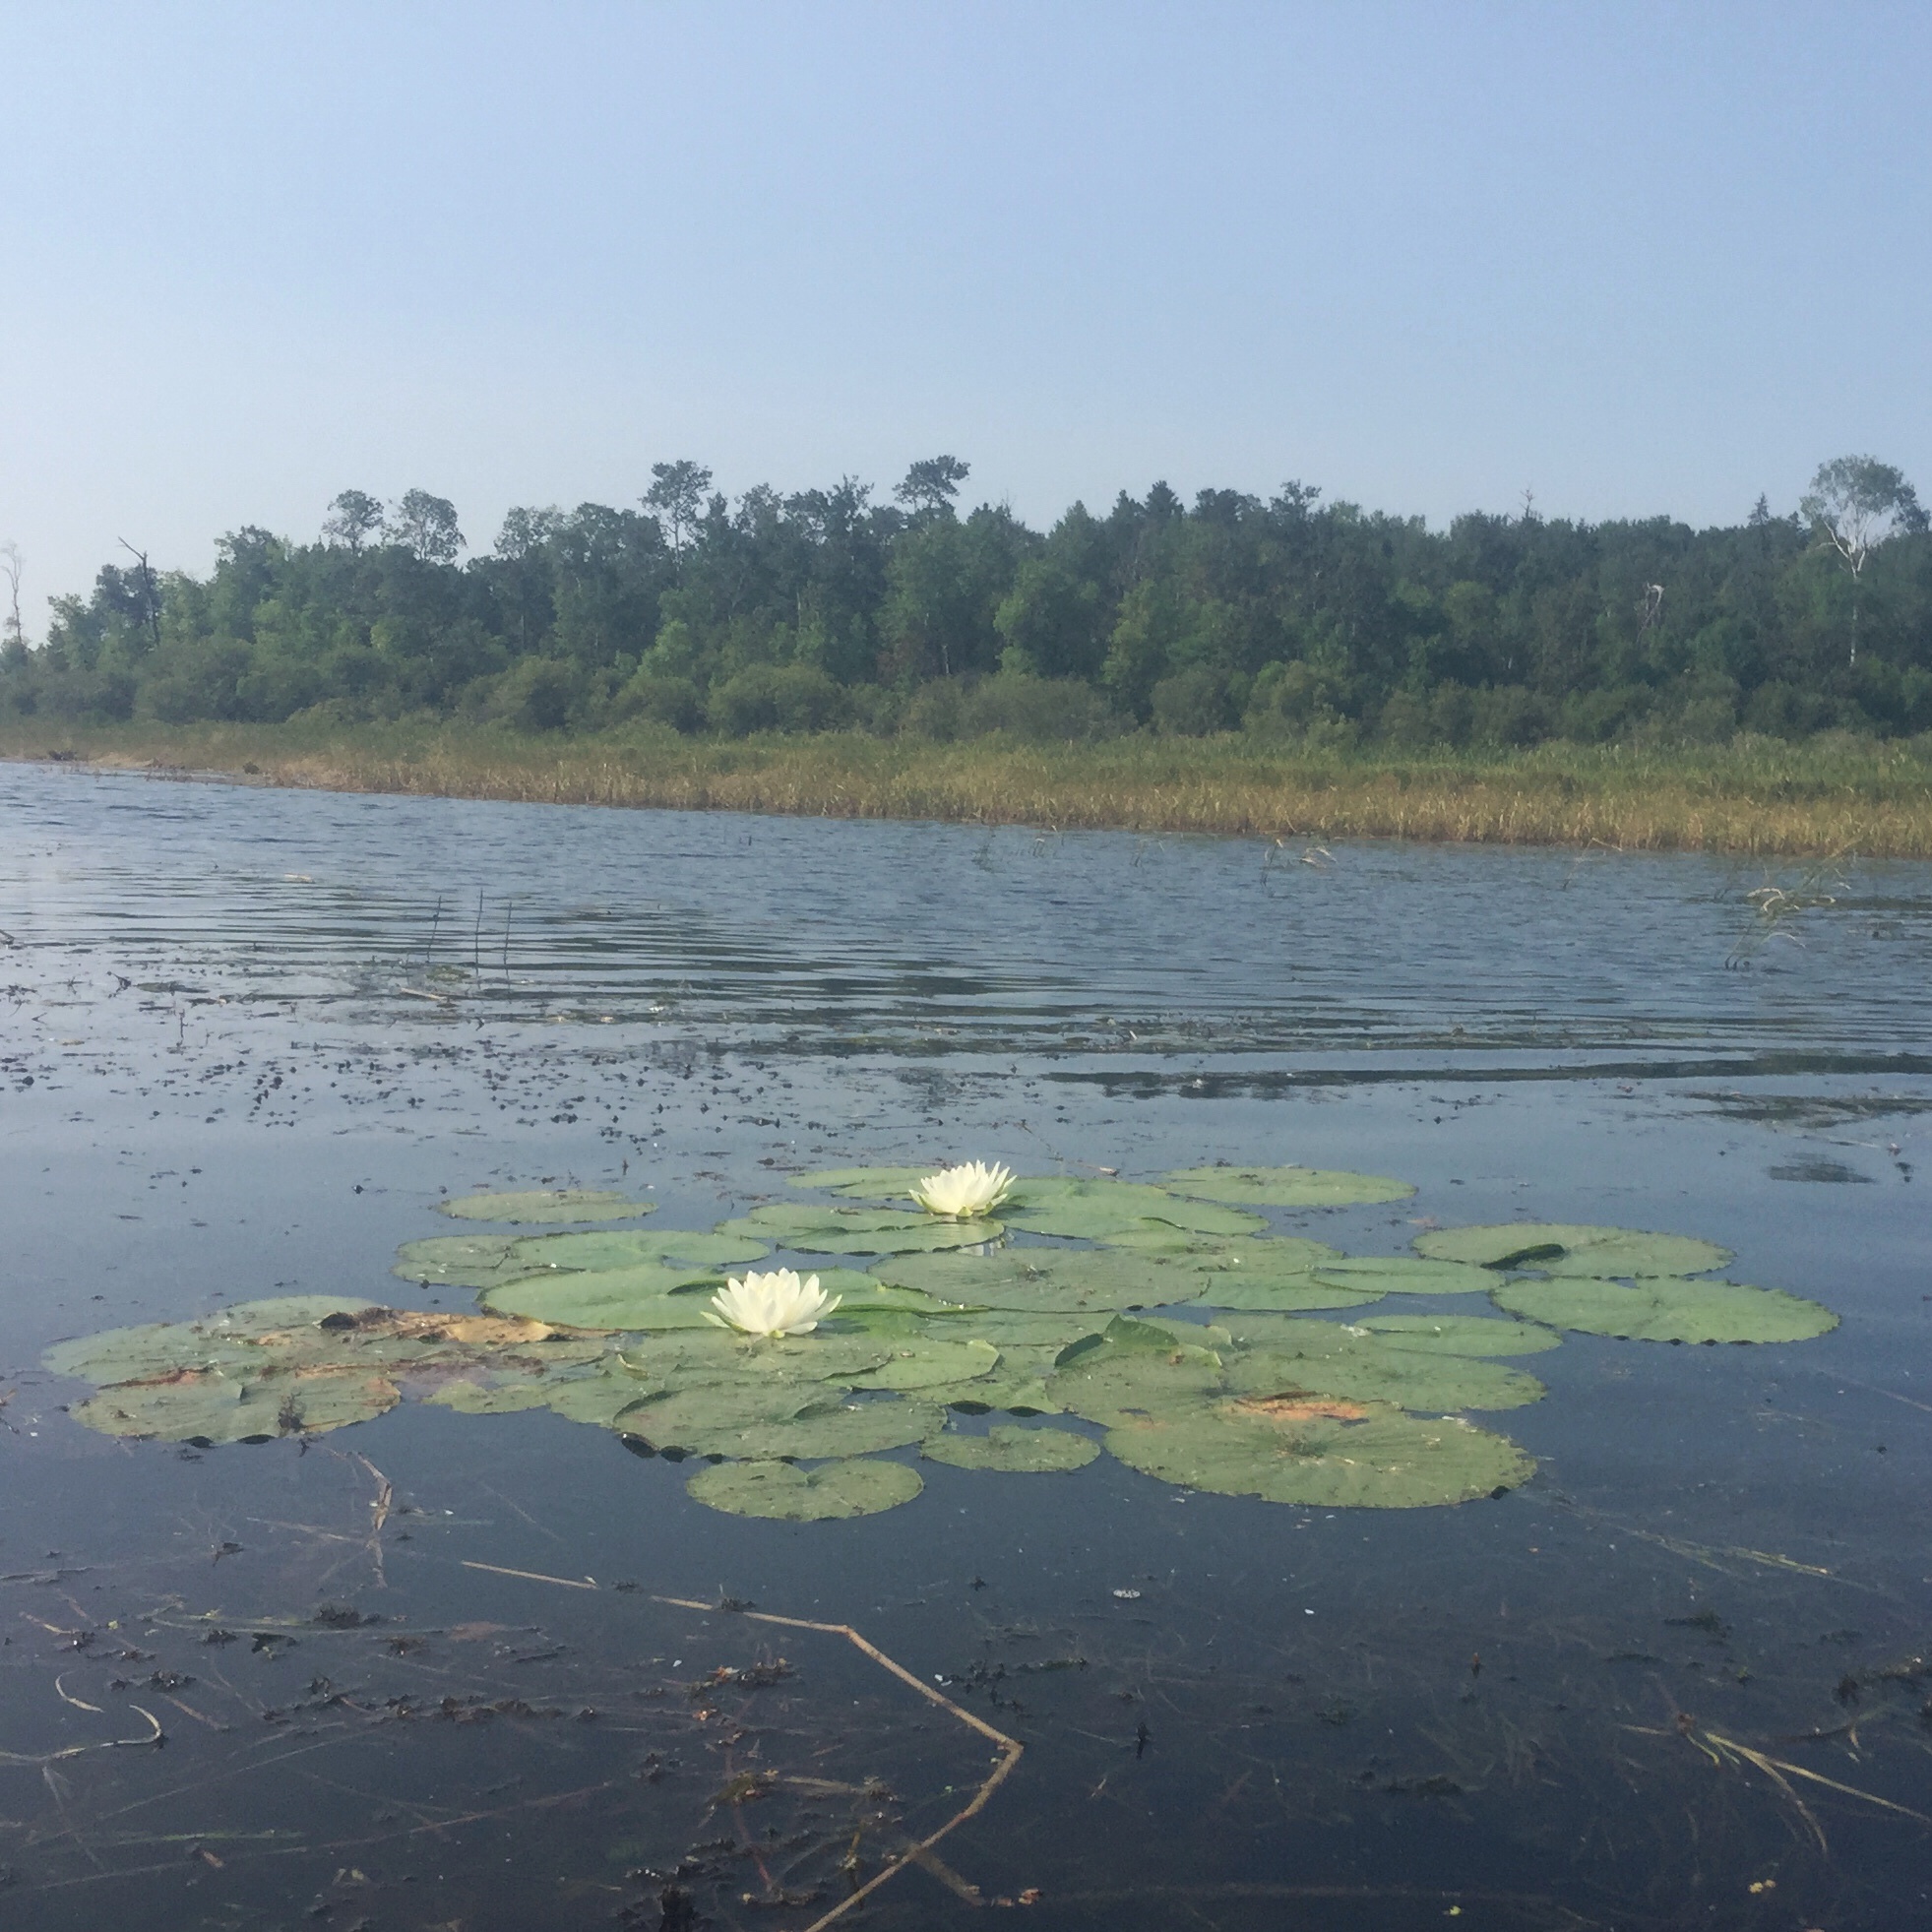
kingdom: Plantae
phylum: Tracheophyta
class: Magnoliopsida
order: Nymphaeales
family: Nymphaeaceae
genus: Nymphaea
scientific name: Nymphaea odorata
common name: Fragrant water-lily
